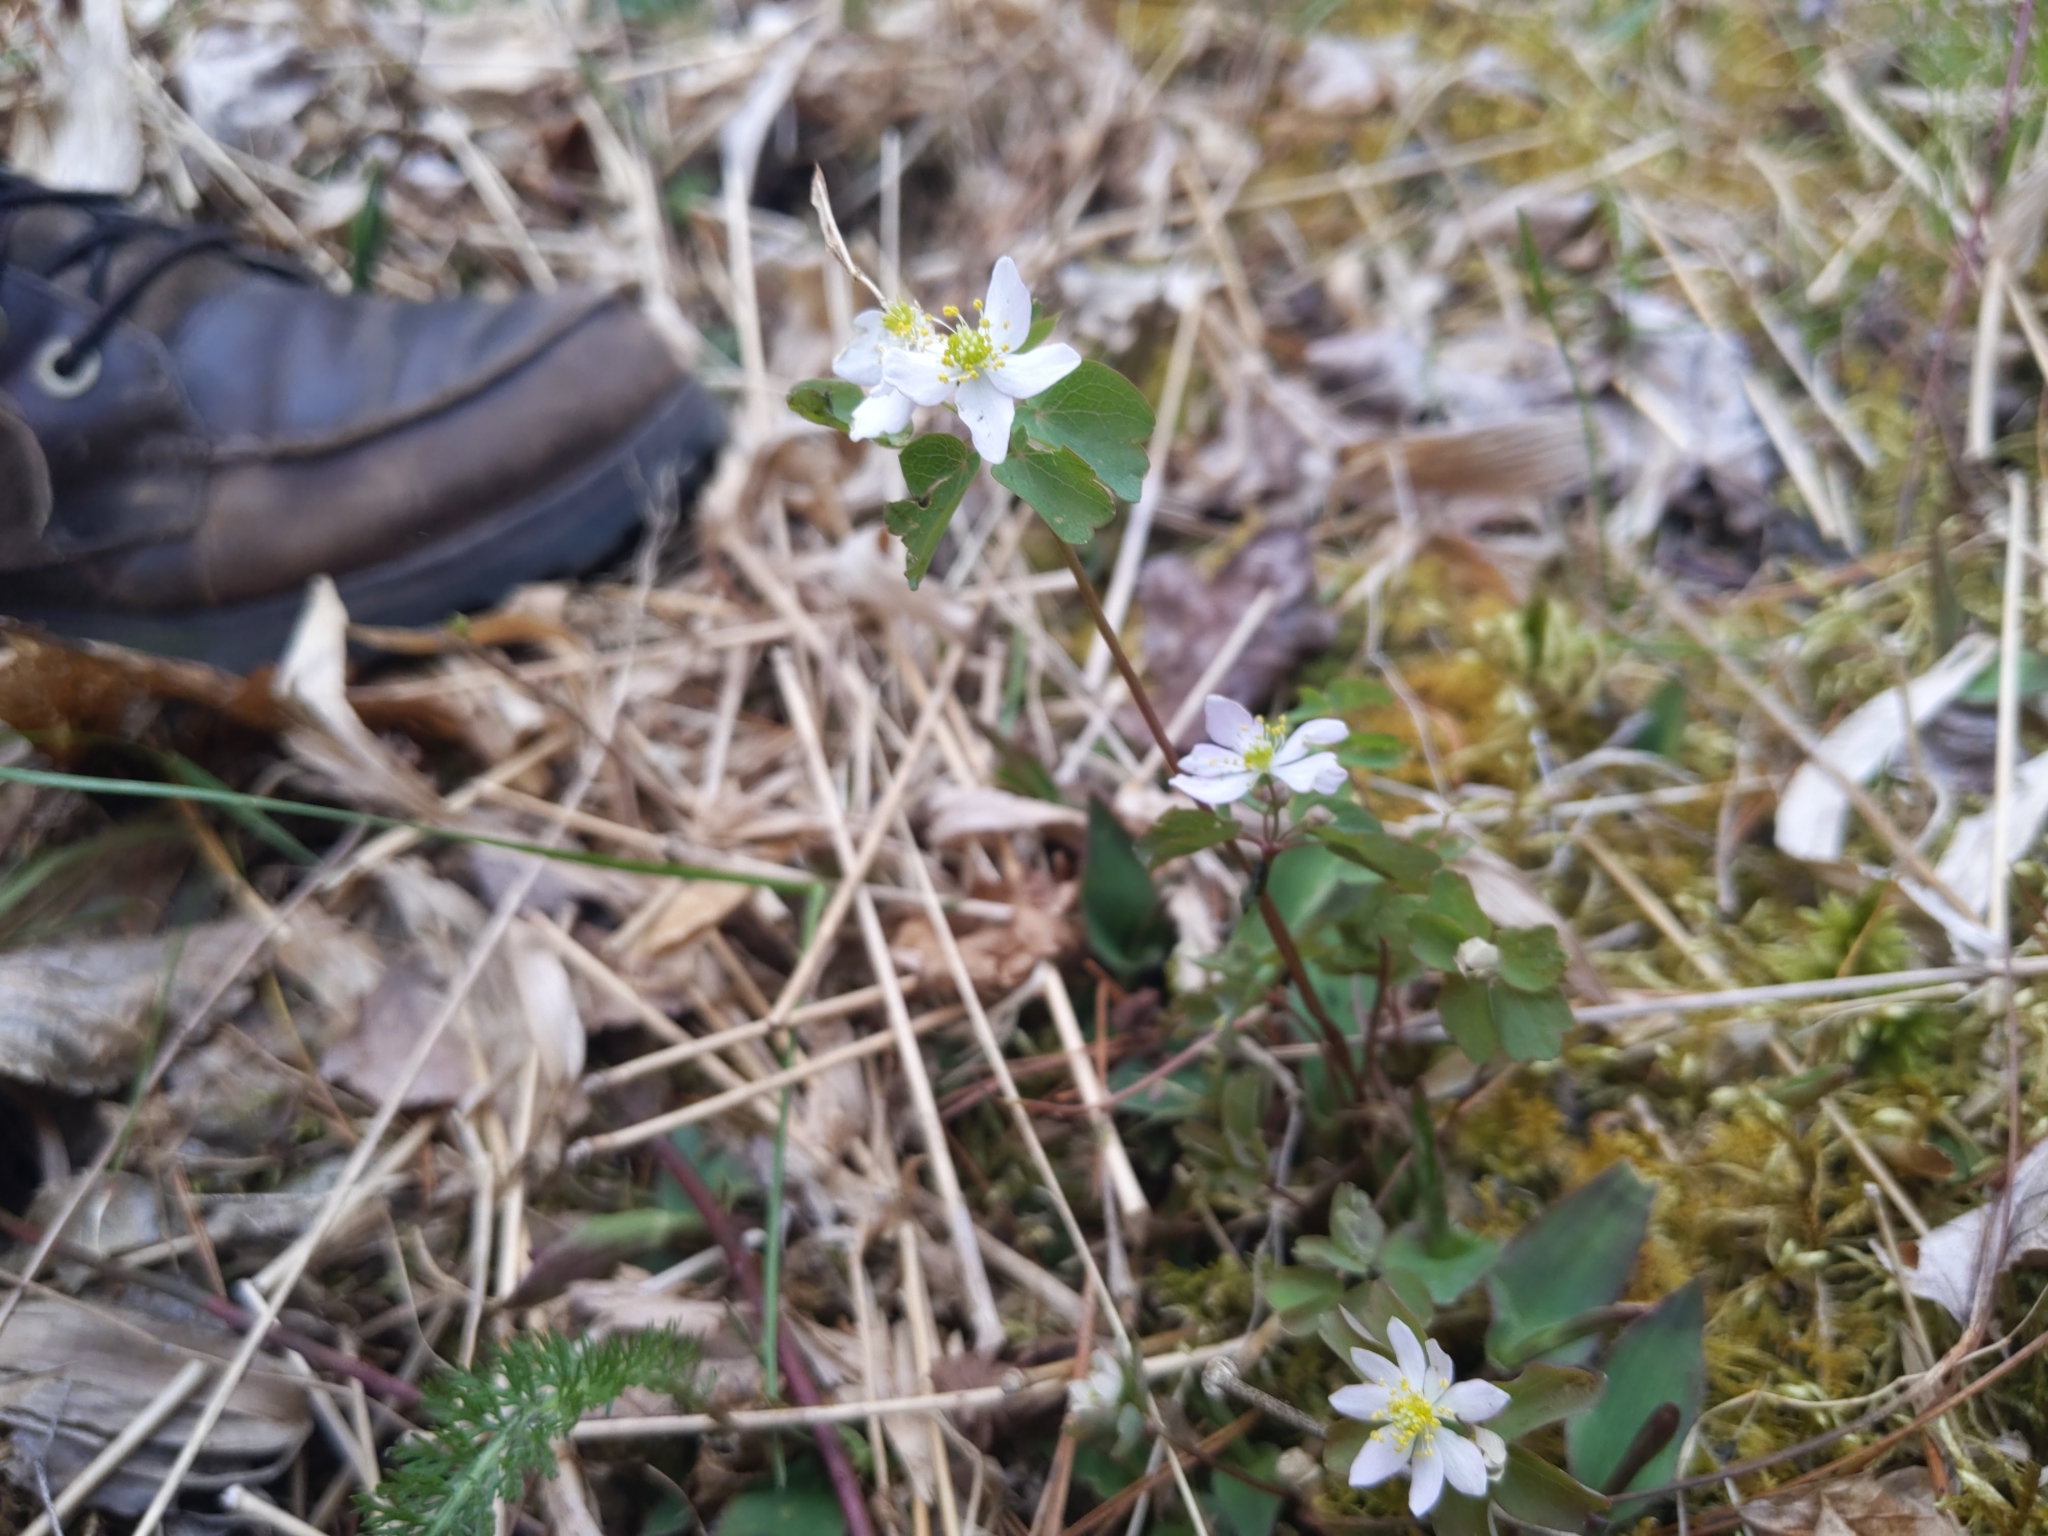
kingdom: Plantae
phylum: Tracheophyta
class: Magnoliopsida
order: Ranunculales
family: Ranunculaceae
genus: Thalictrum
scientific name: Thalictrum thalictroides
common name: Rue-anemone
